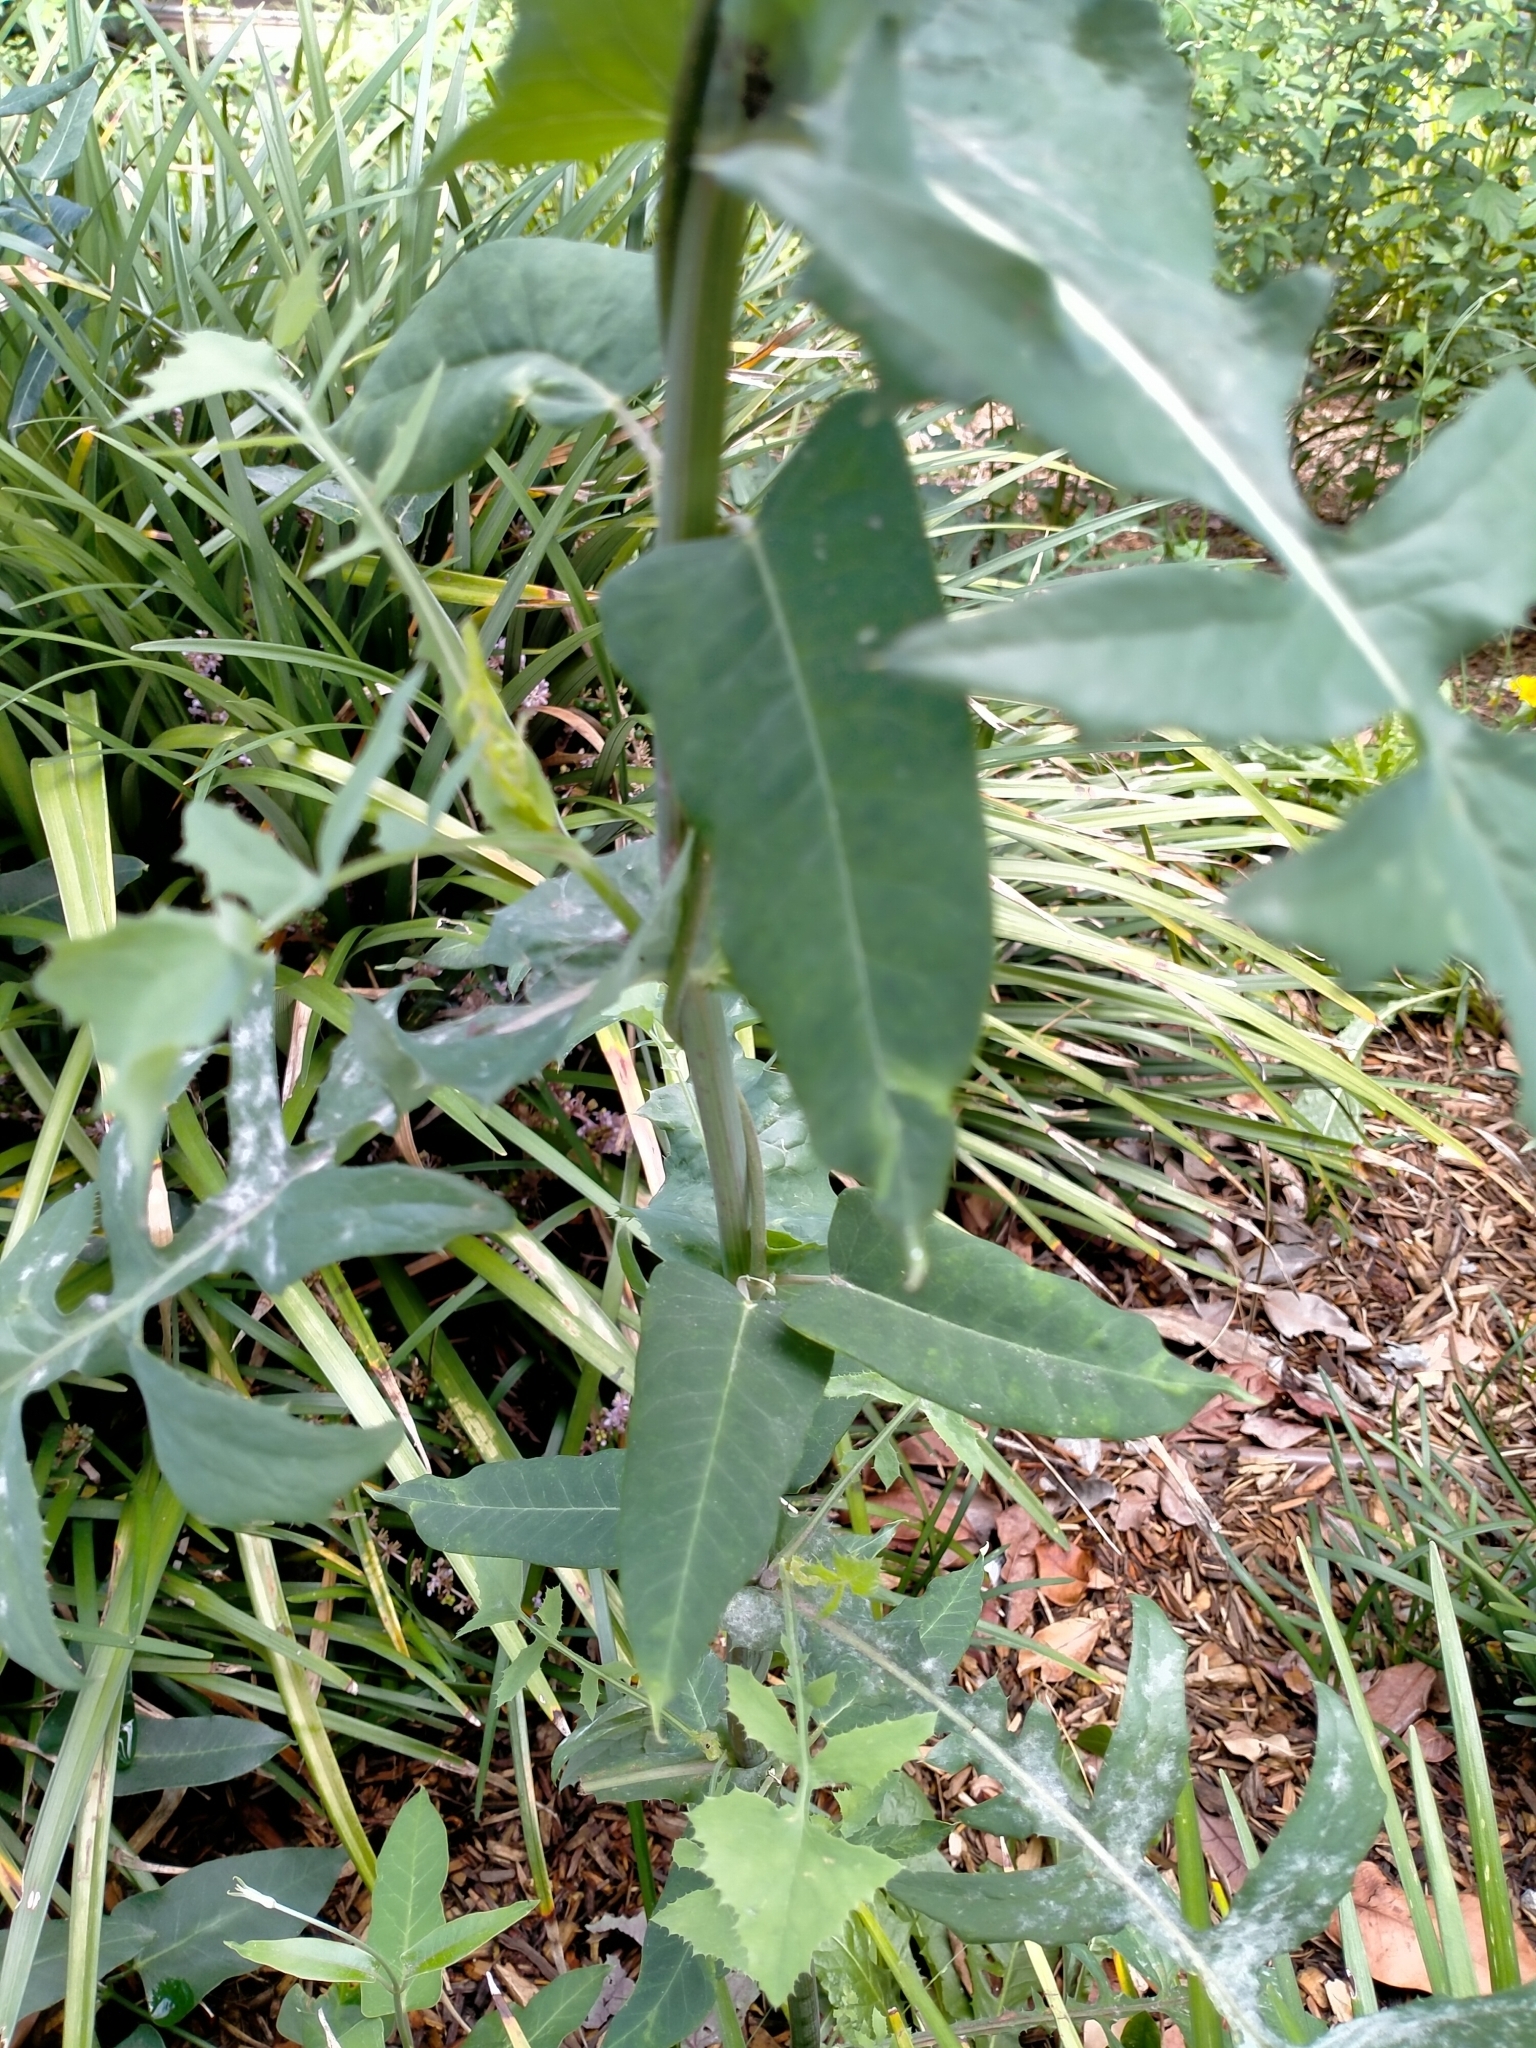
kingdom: Plantae
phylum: Tracheophyta
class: Magnoliopsida
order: Gentianales
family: Apocynaceae
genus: Araujia
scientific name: Araujia sericifera
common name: White bladderflower
